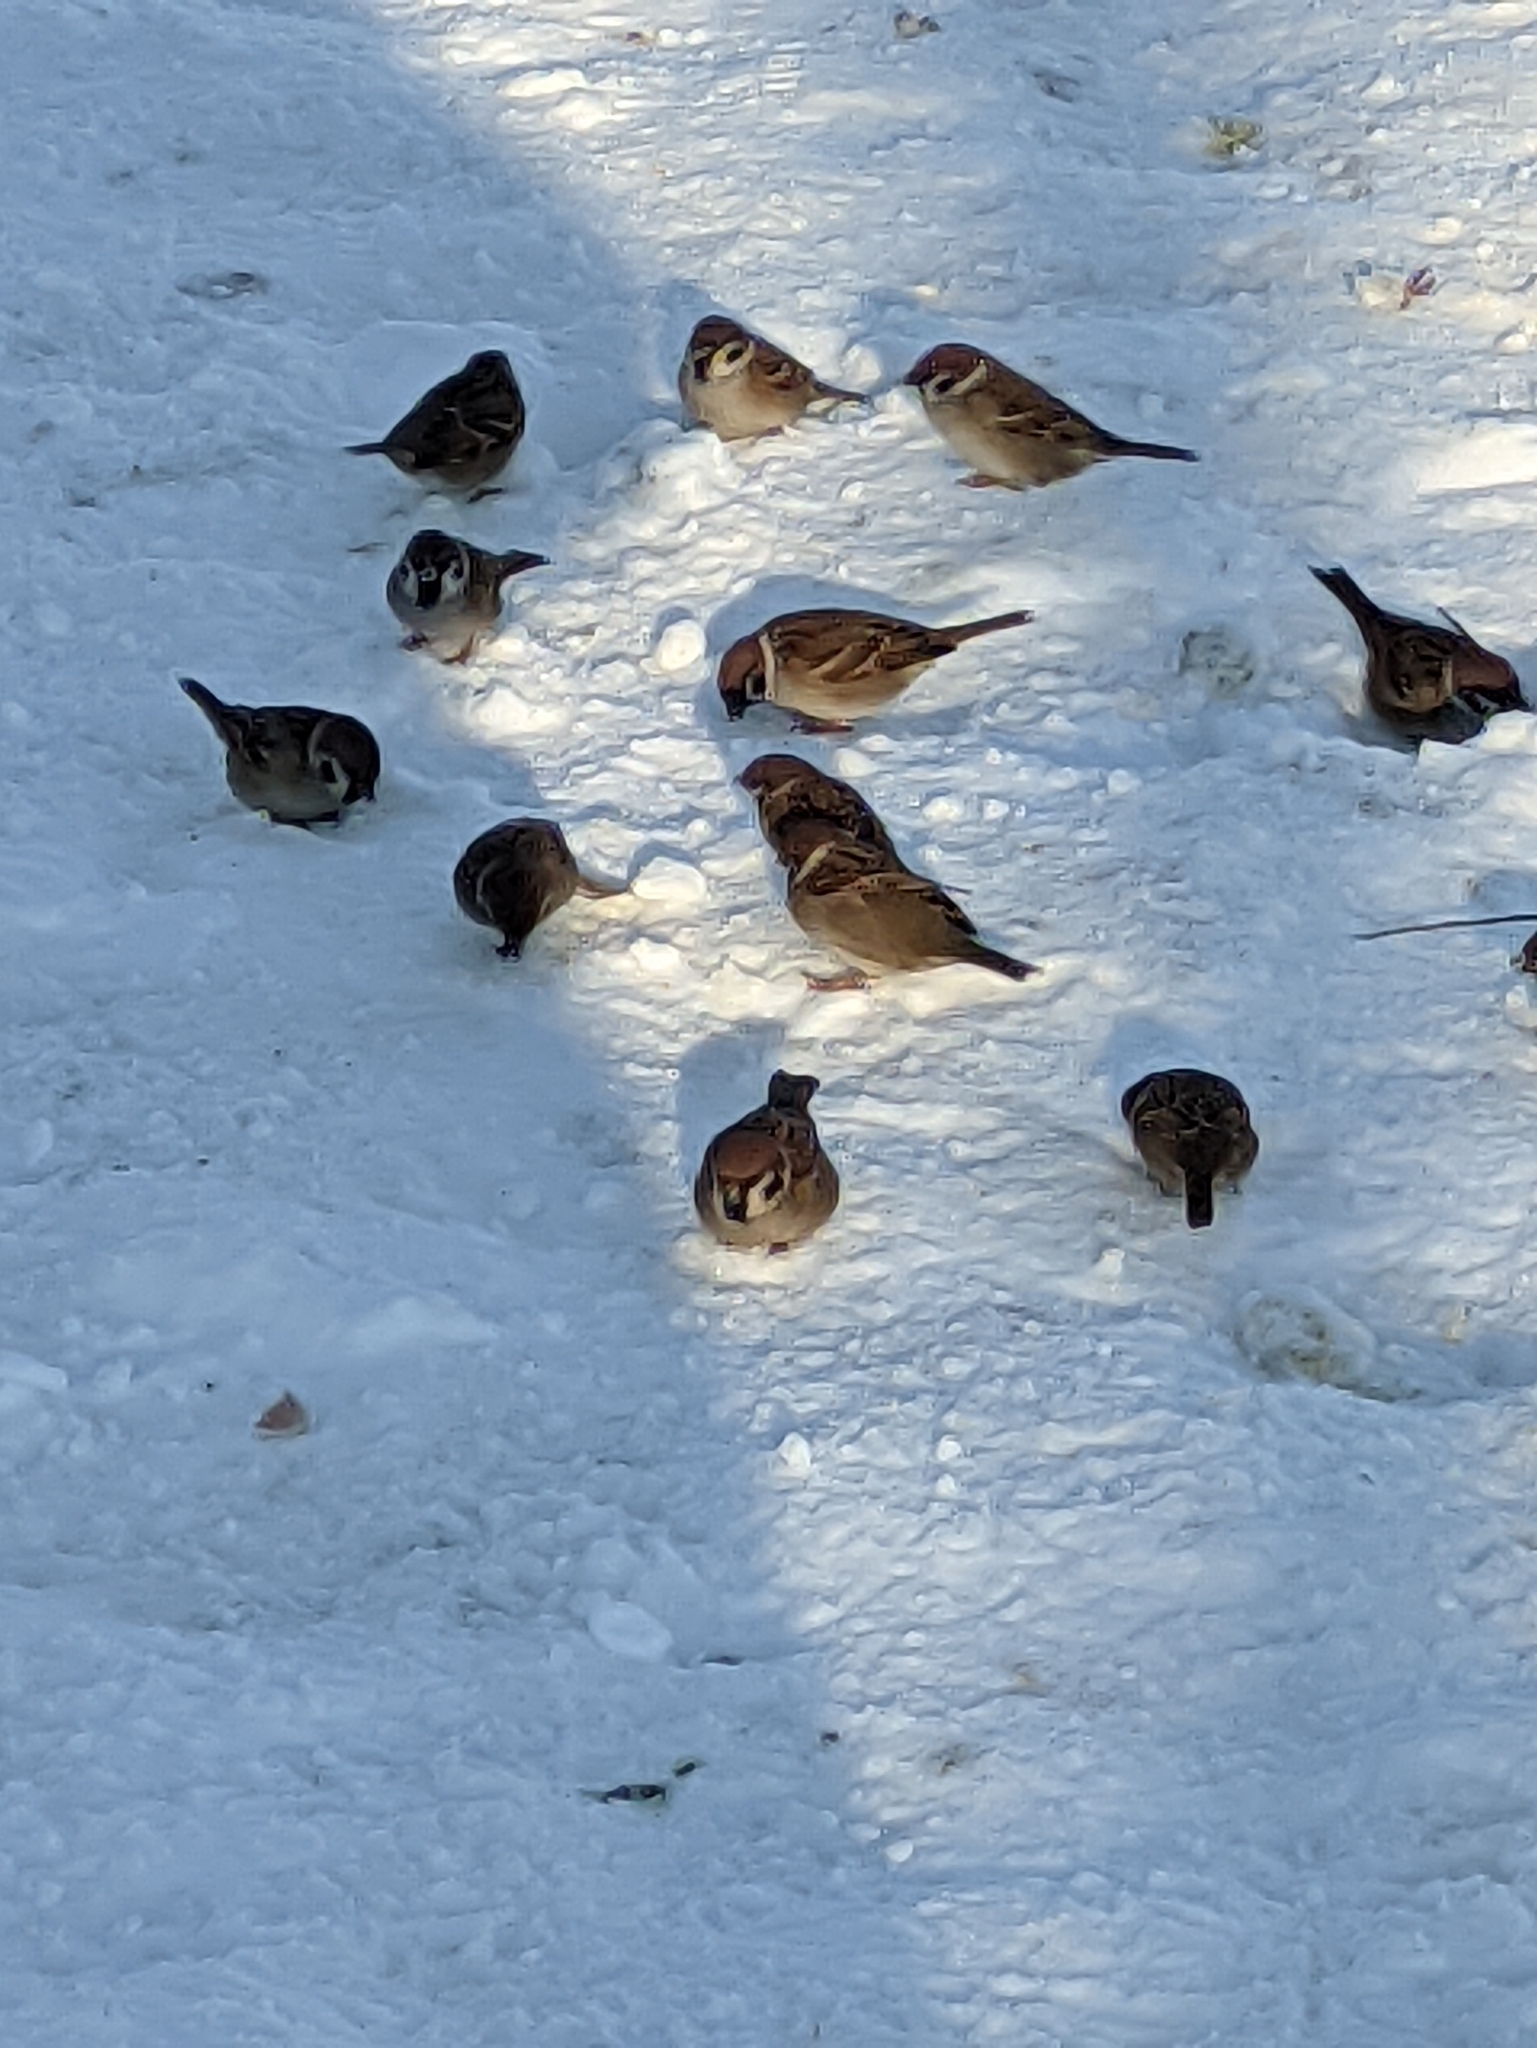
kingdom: Animalia
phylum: Chordata
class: Aves
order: Passeriformes
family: Passeridae
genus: Passer
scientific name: Passer montanus
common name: Eurasian tree sparrow
